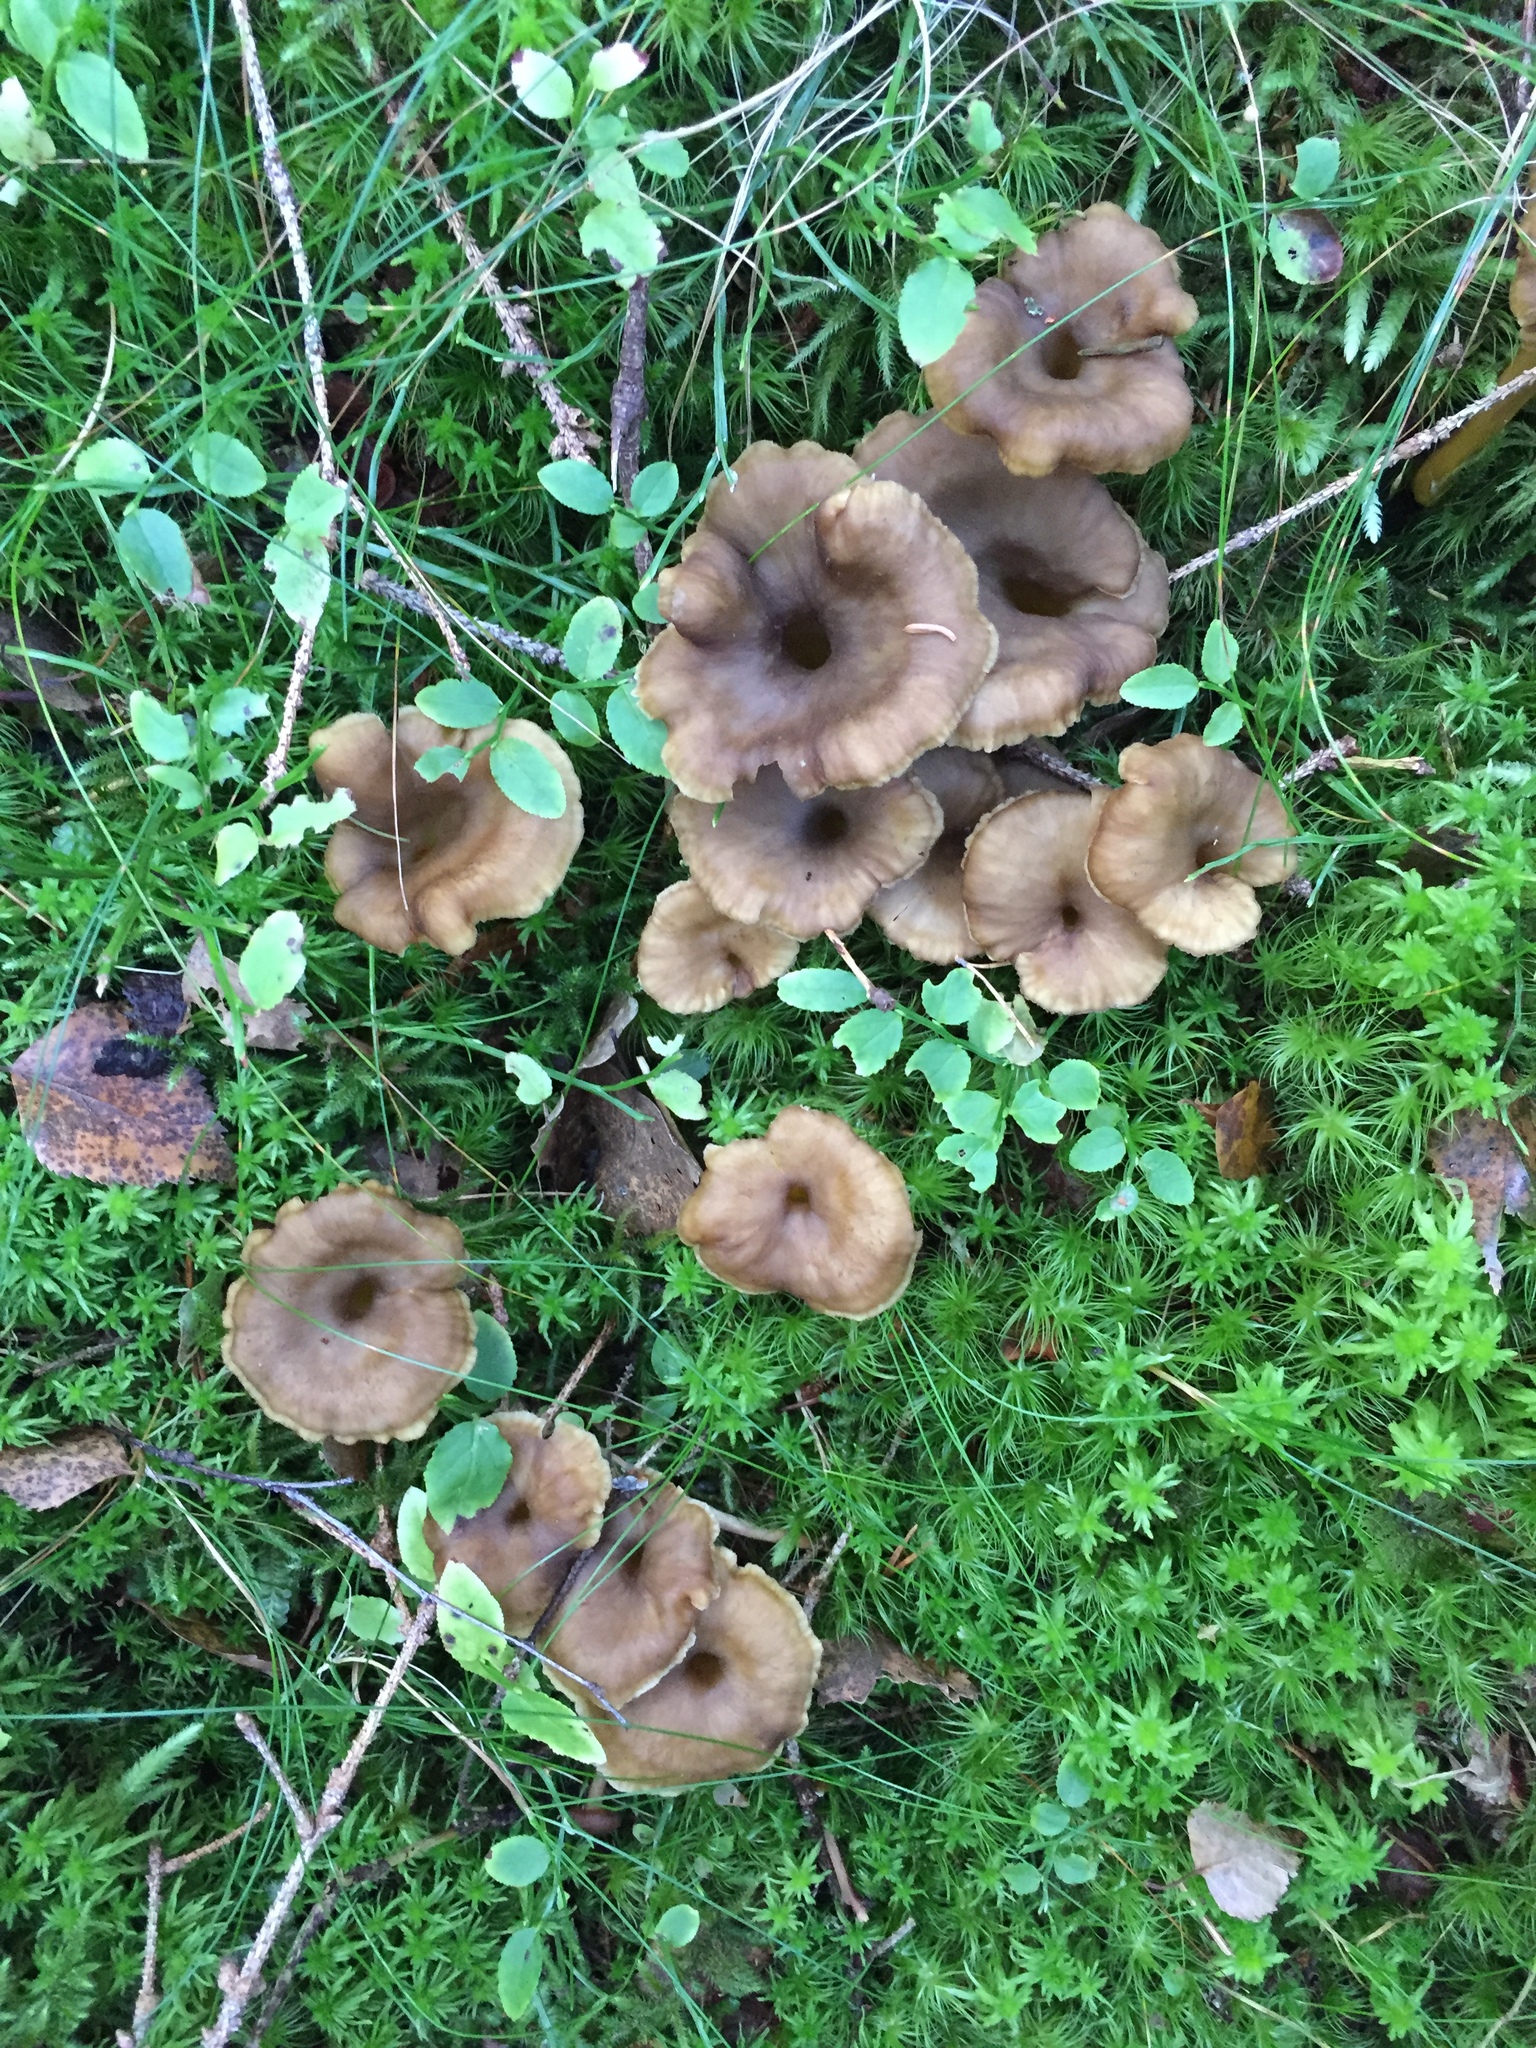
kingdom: Fungi
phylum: Basidiomycota
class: Agaricomycetes
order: Cantharellales
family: Hydnaceae
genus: Craterellus
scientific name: Craterellus tubaeformis
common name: Yellowfoot
